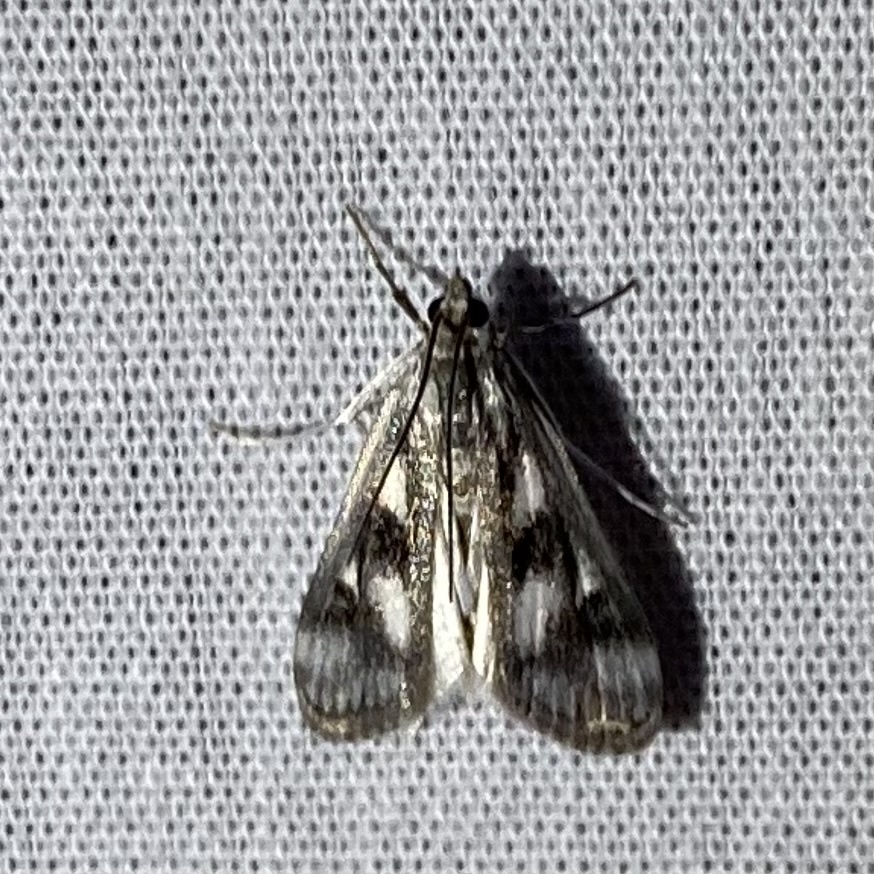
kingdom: Animalia
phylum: Arthropoda
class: Insecta
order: Lepidoptera
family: Crambidae
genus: Parapoynx
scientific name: Parapoynx maculalis
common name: Polymorphic pondweed moth
